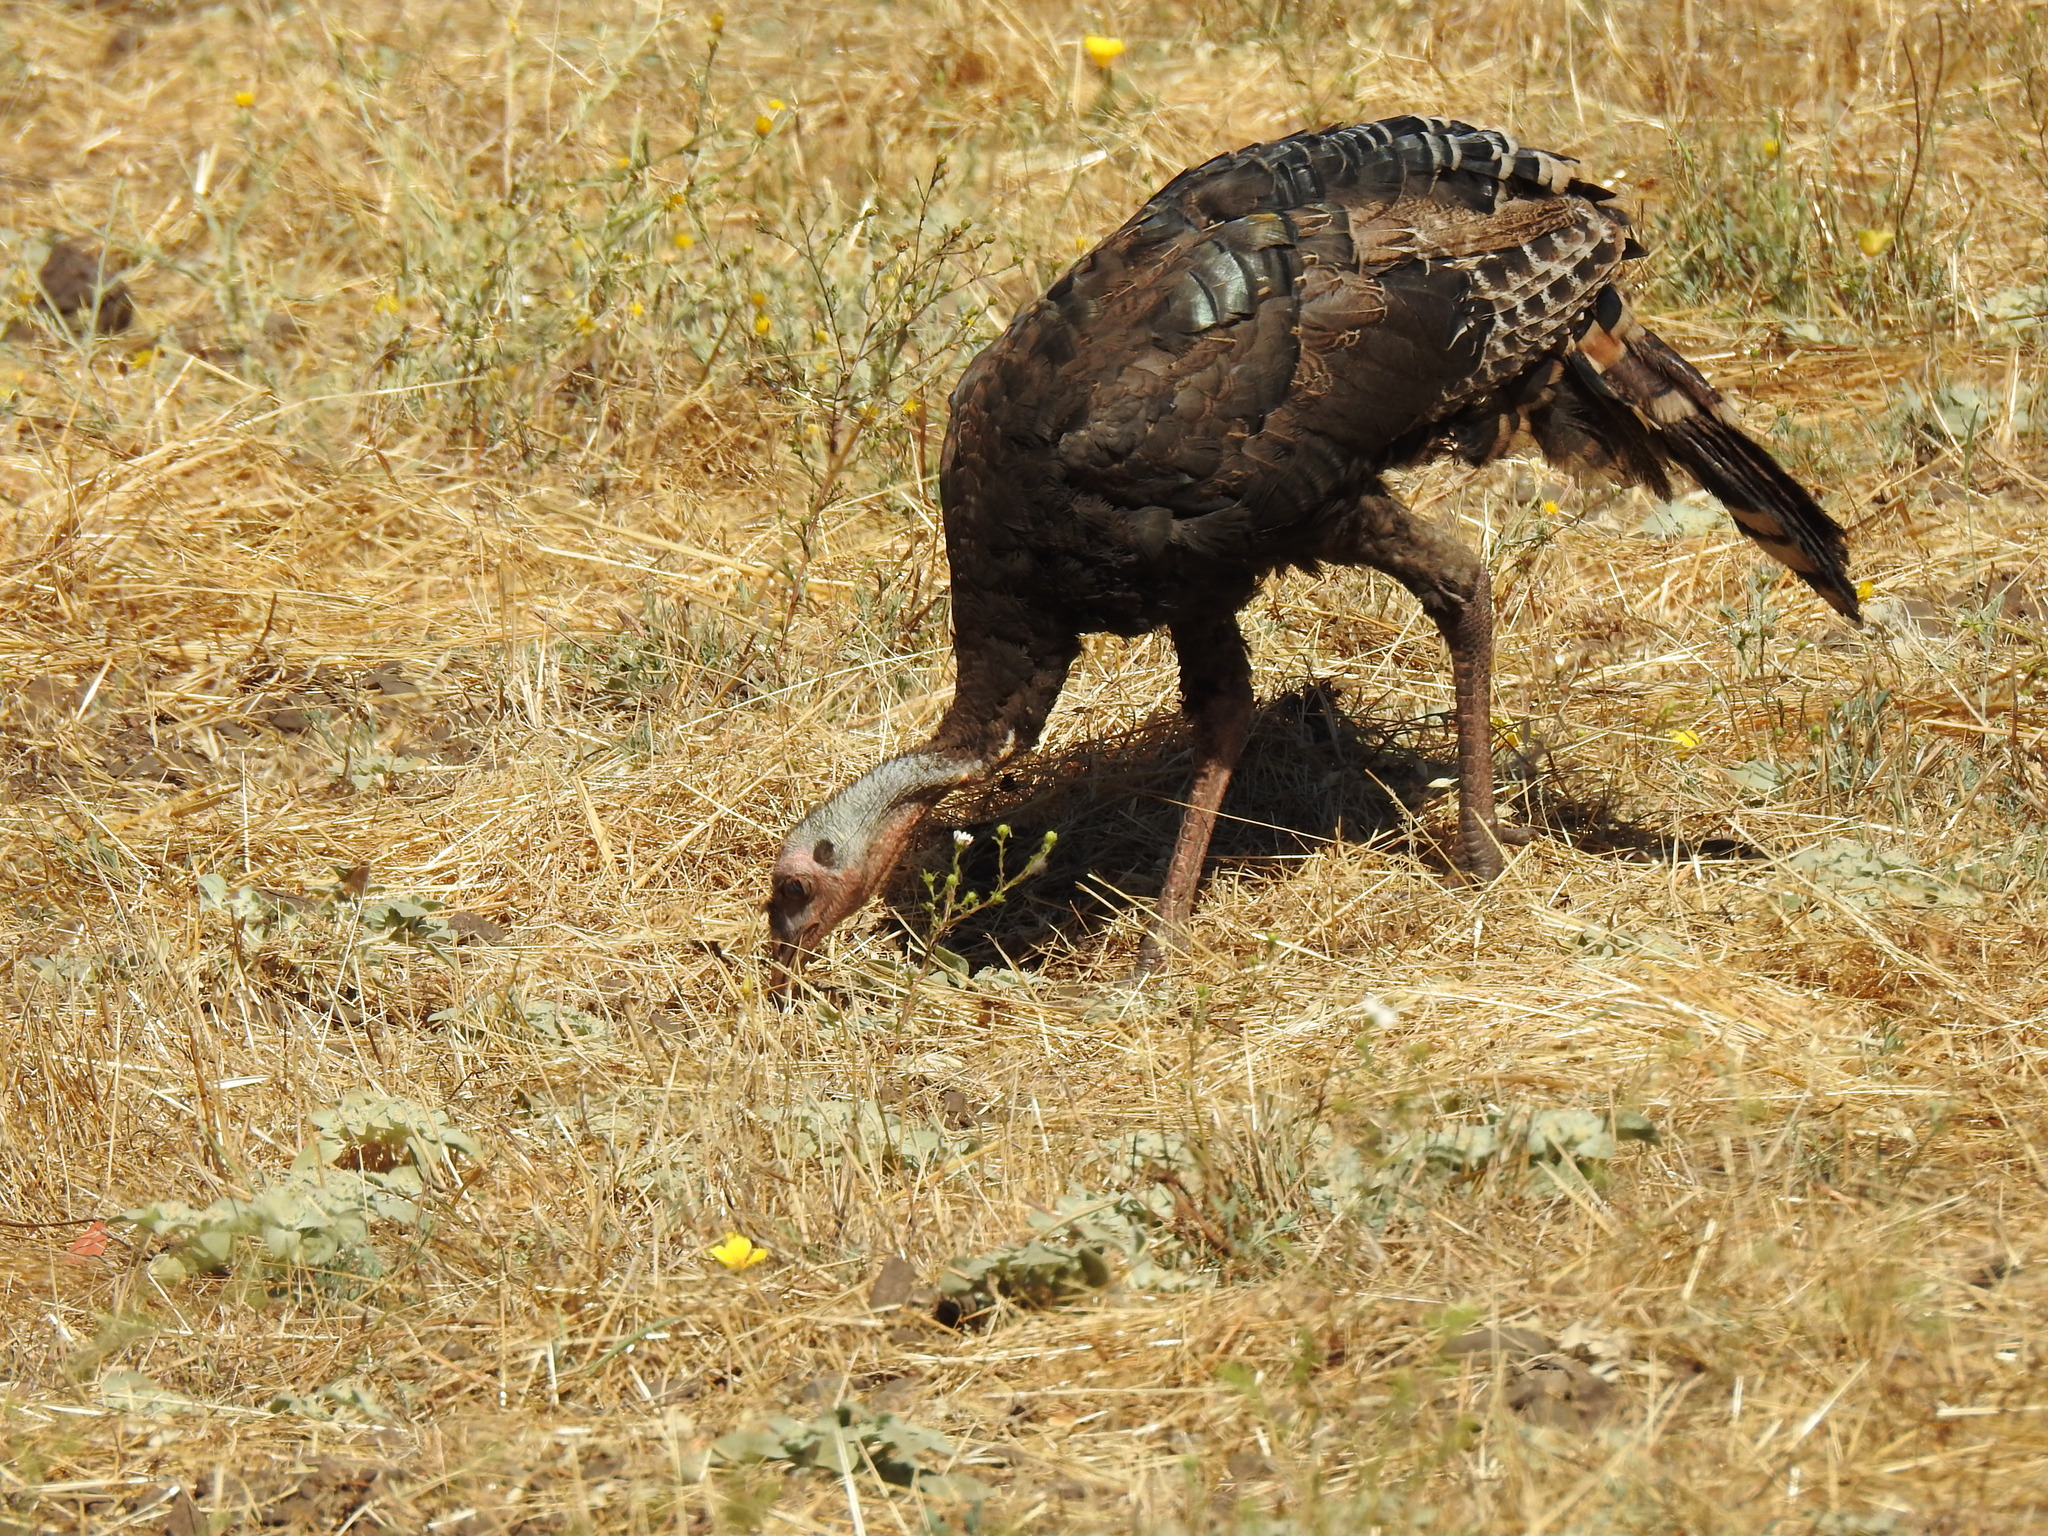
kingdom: Animalia
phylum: Chordata
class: Aves
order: Galliformes
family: Phasianidae
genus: Meleagris
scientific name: Meleagris gallopavo
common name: Wild turkey
